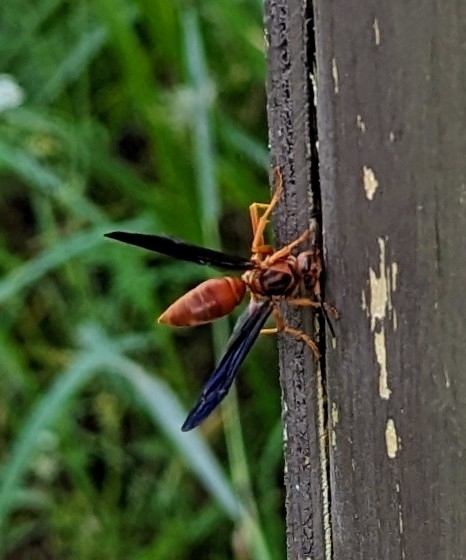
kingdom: Animalia
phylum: Arthropoda
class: Insecta
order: Hymenoptera
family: Eumenidae
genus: Polistes
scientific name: Polistes carolina
